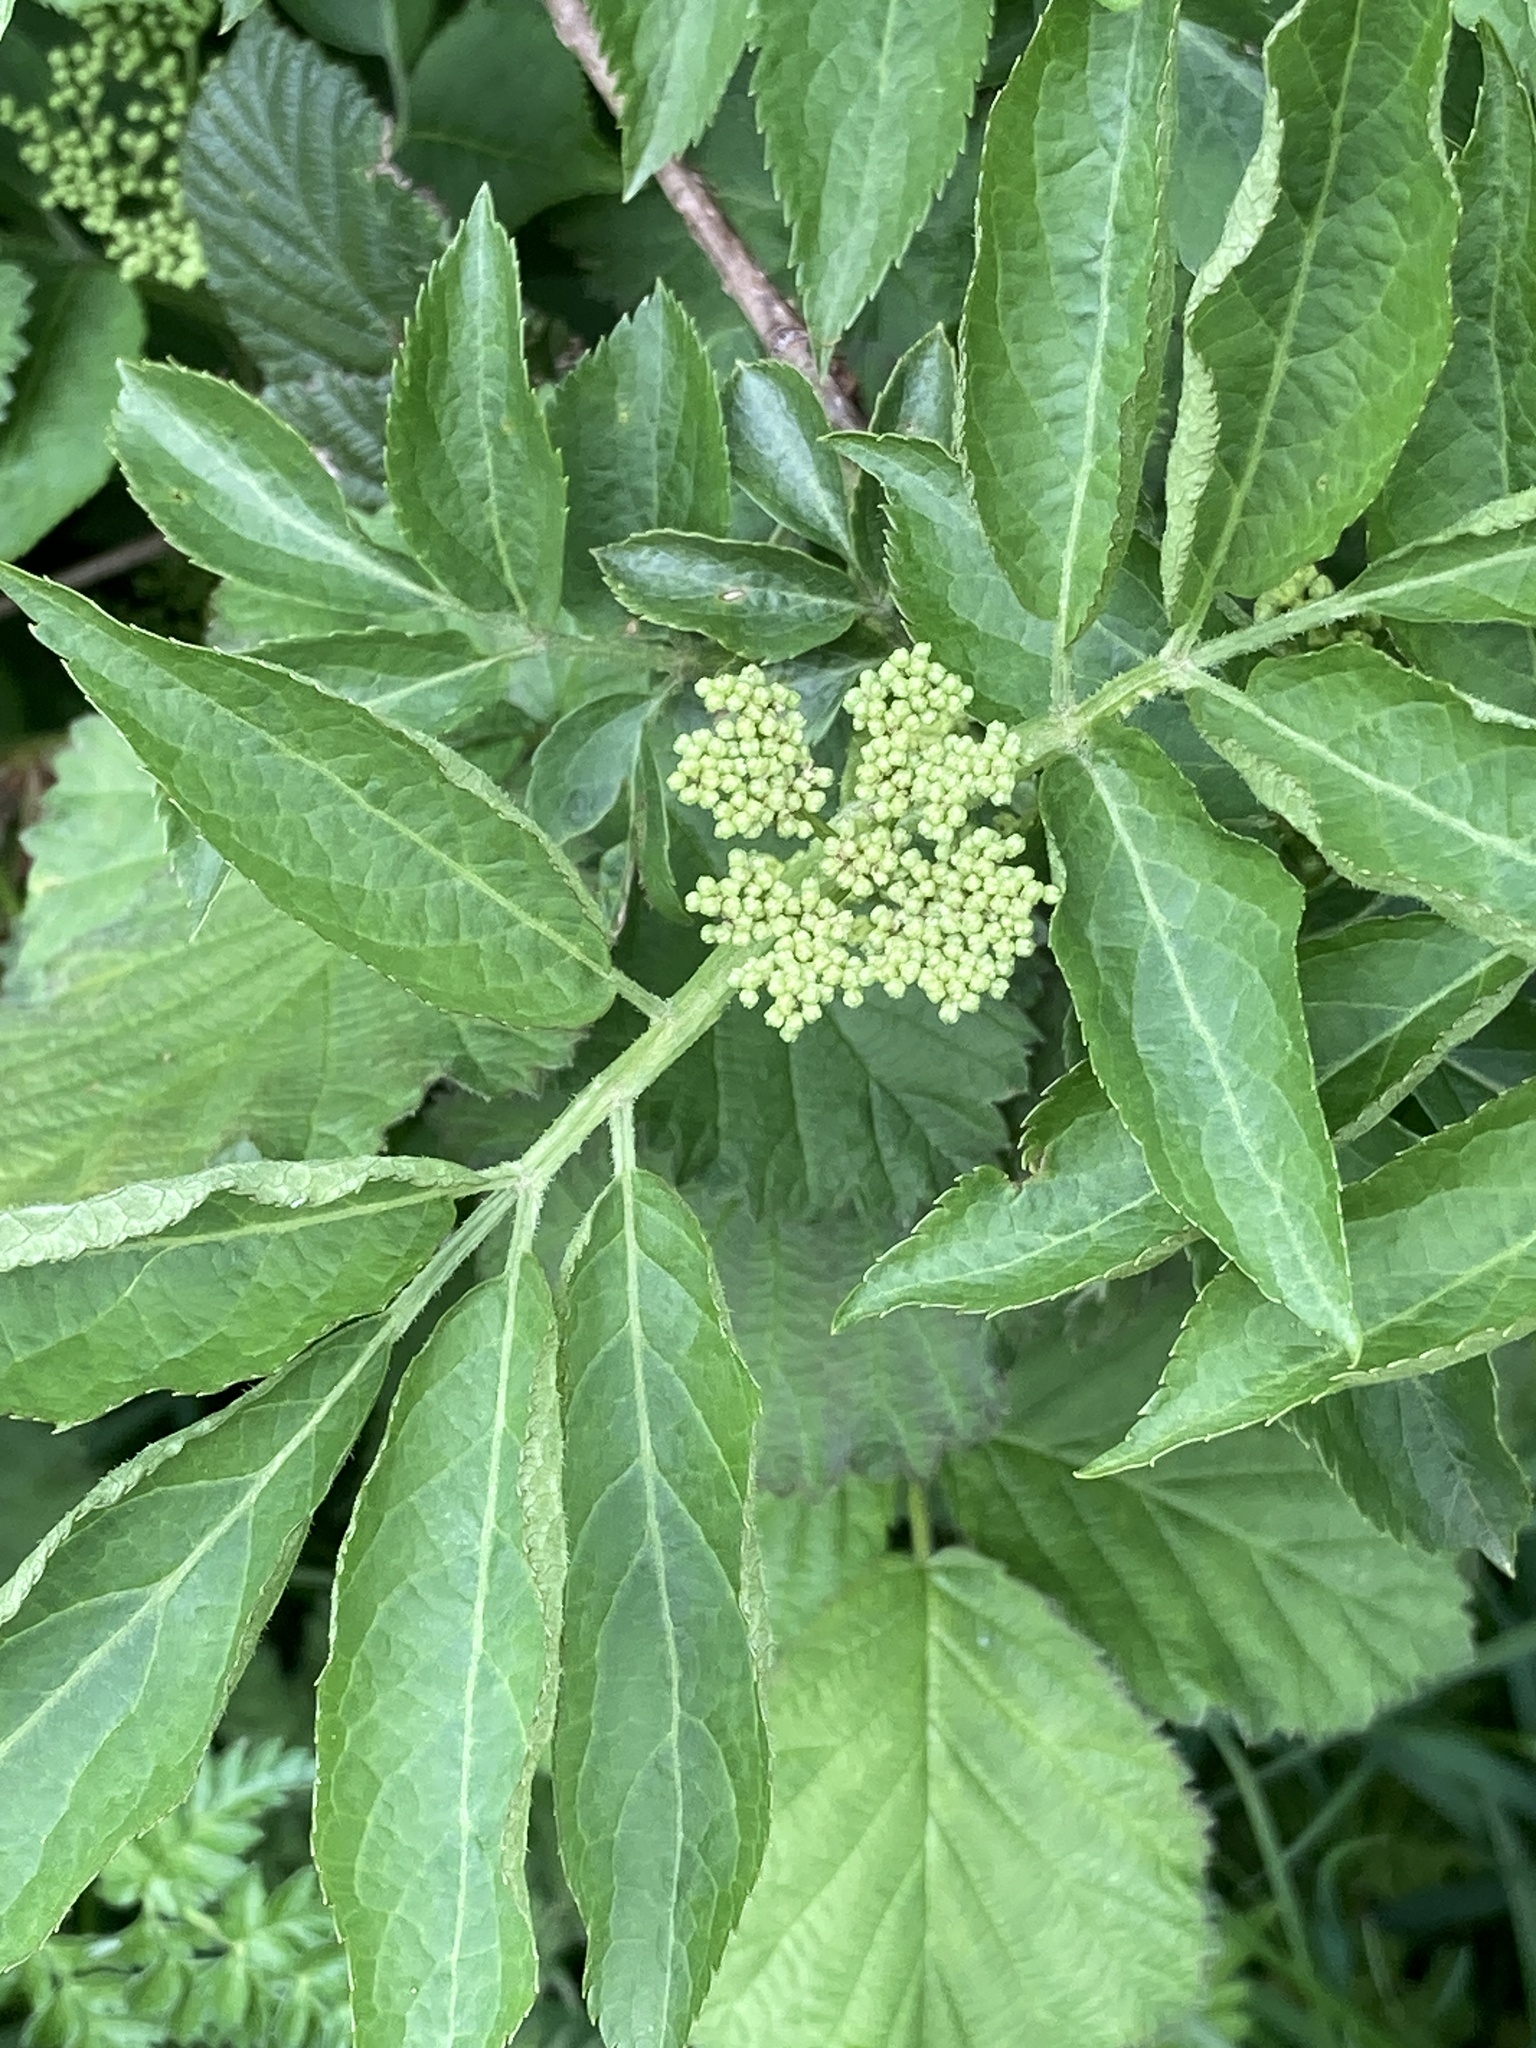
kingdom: Plantae
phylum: Tracheophyta
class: Magnoliopsida
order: Dipsacales
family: Viburnaceae
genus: Sambucus
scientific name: Sambucus nigra
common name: Elder
